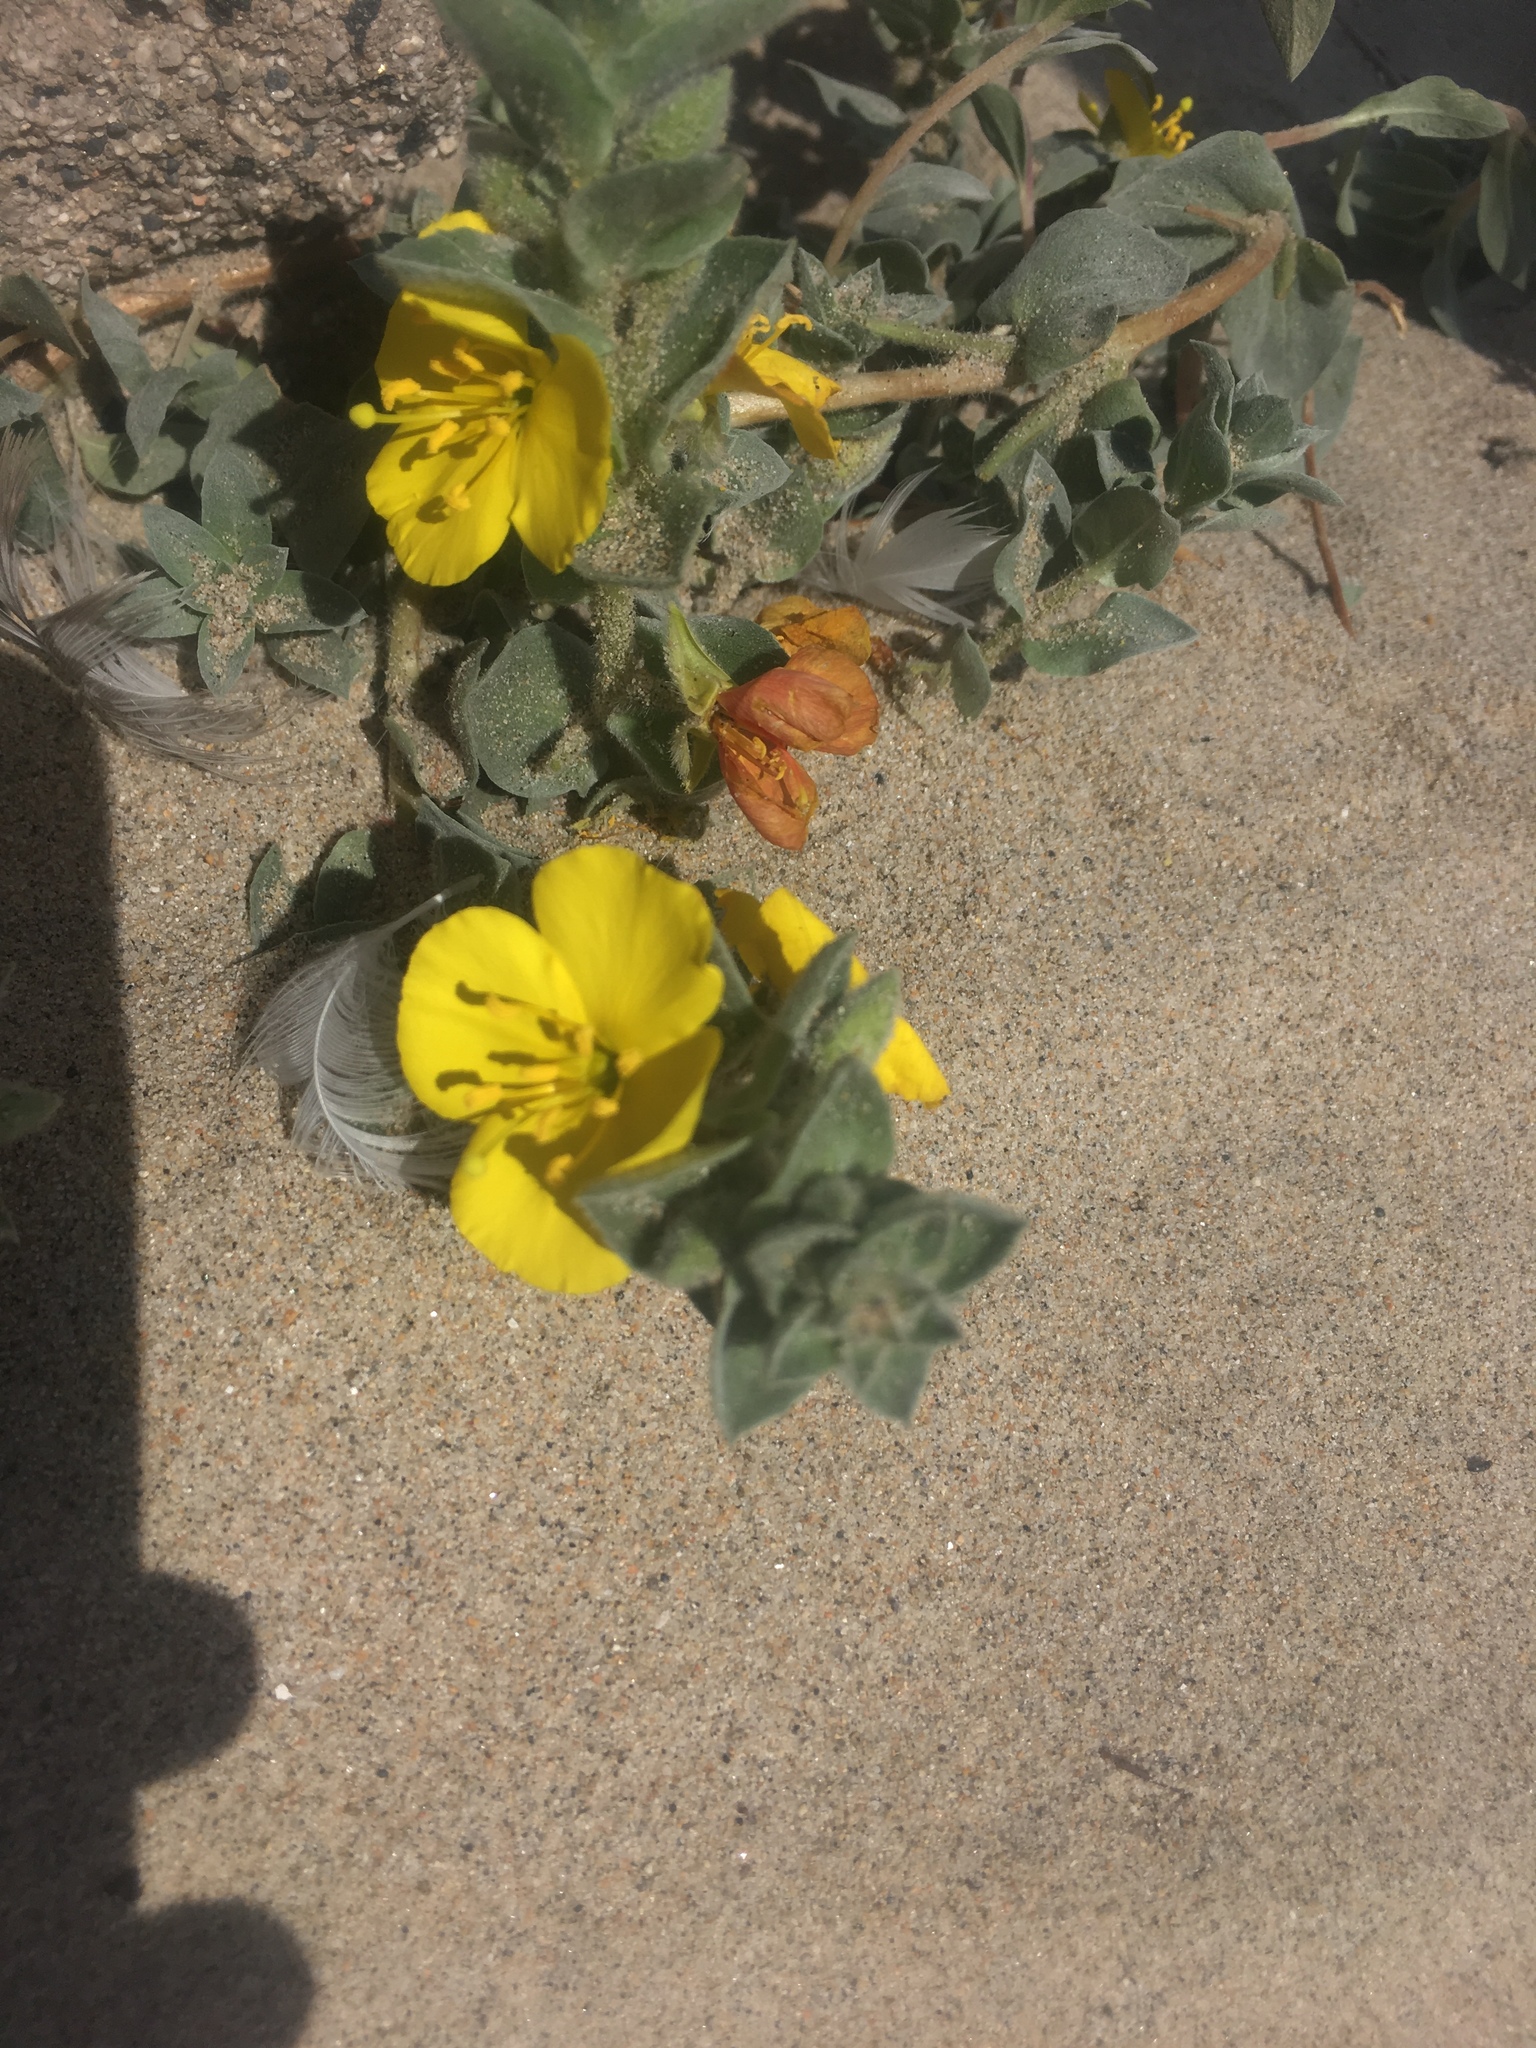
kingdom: Plantae
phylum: Tracheophyta
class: Magnoliopsida
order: Myrtales
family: Onagraceae
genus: Camissoniopsis
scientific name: Camissoniopsis cheiranthifolia
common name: Beach suncup
